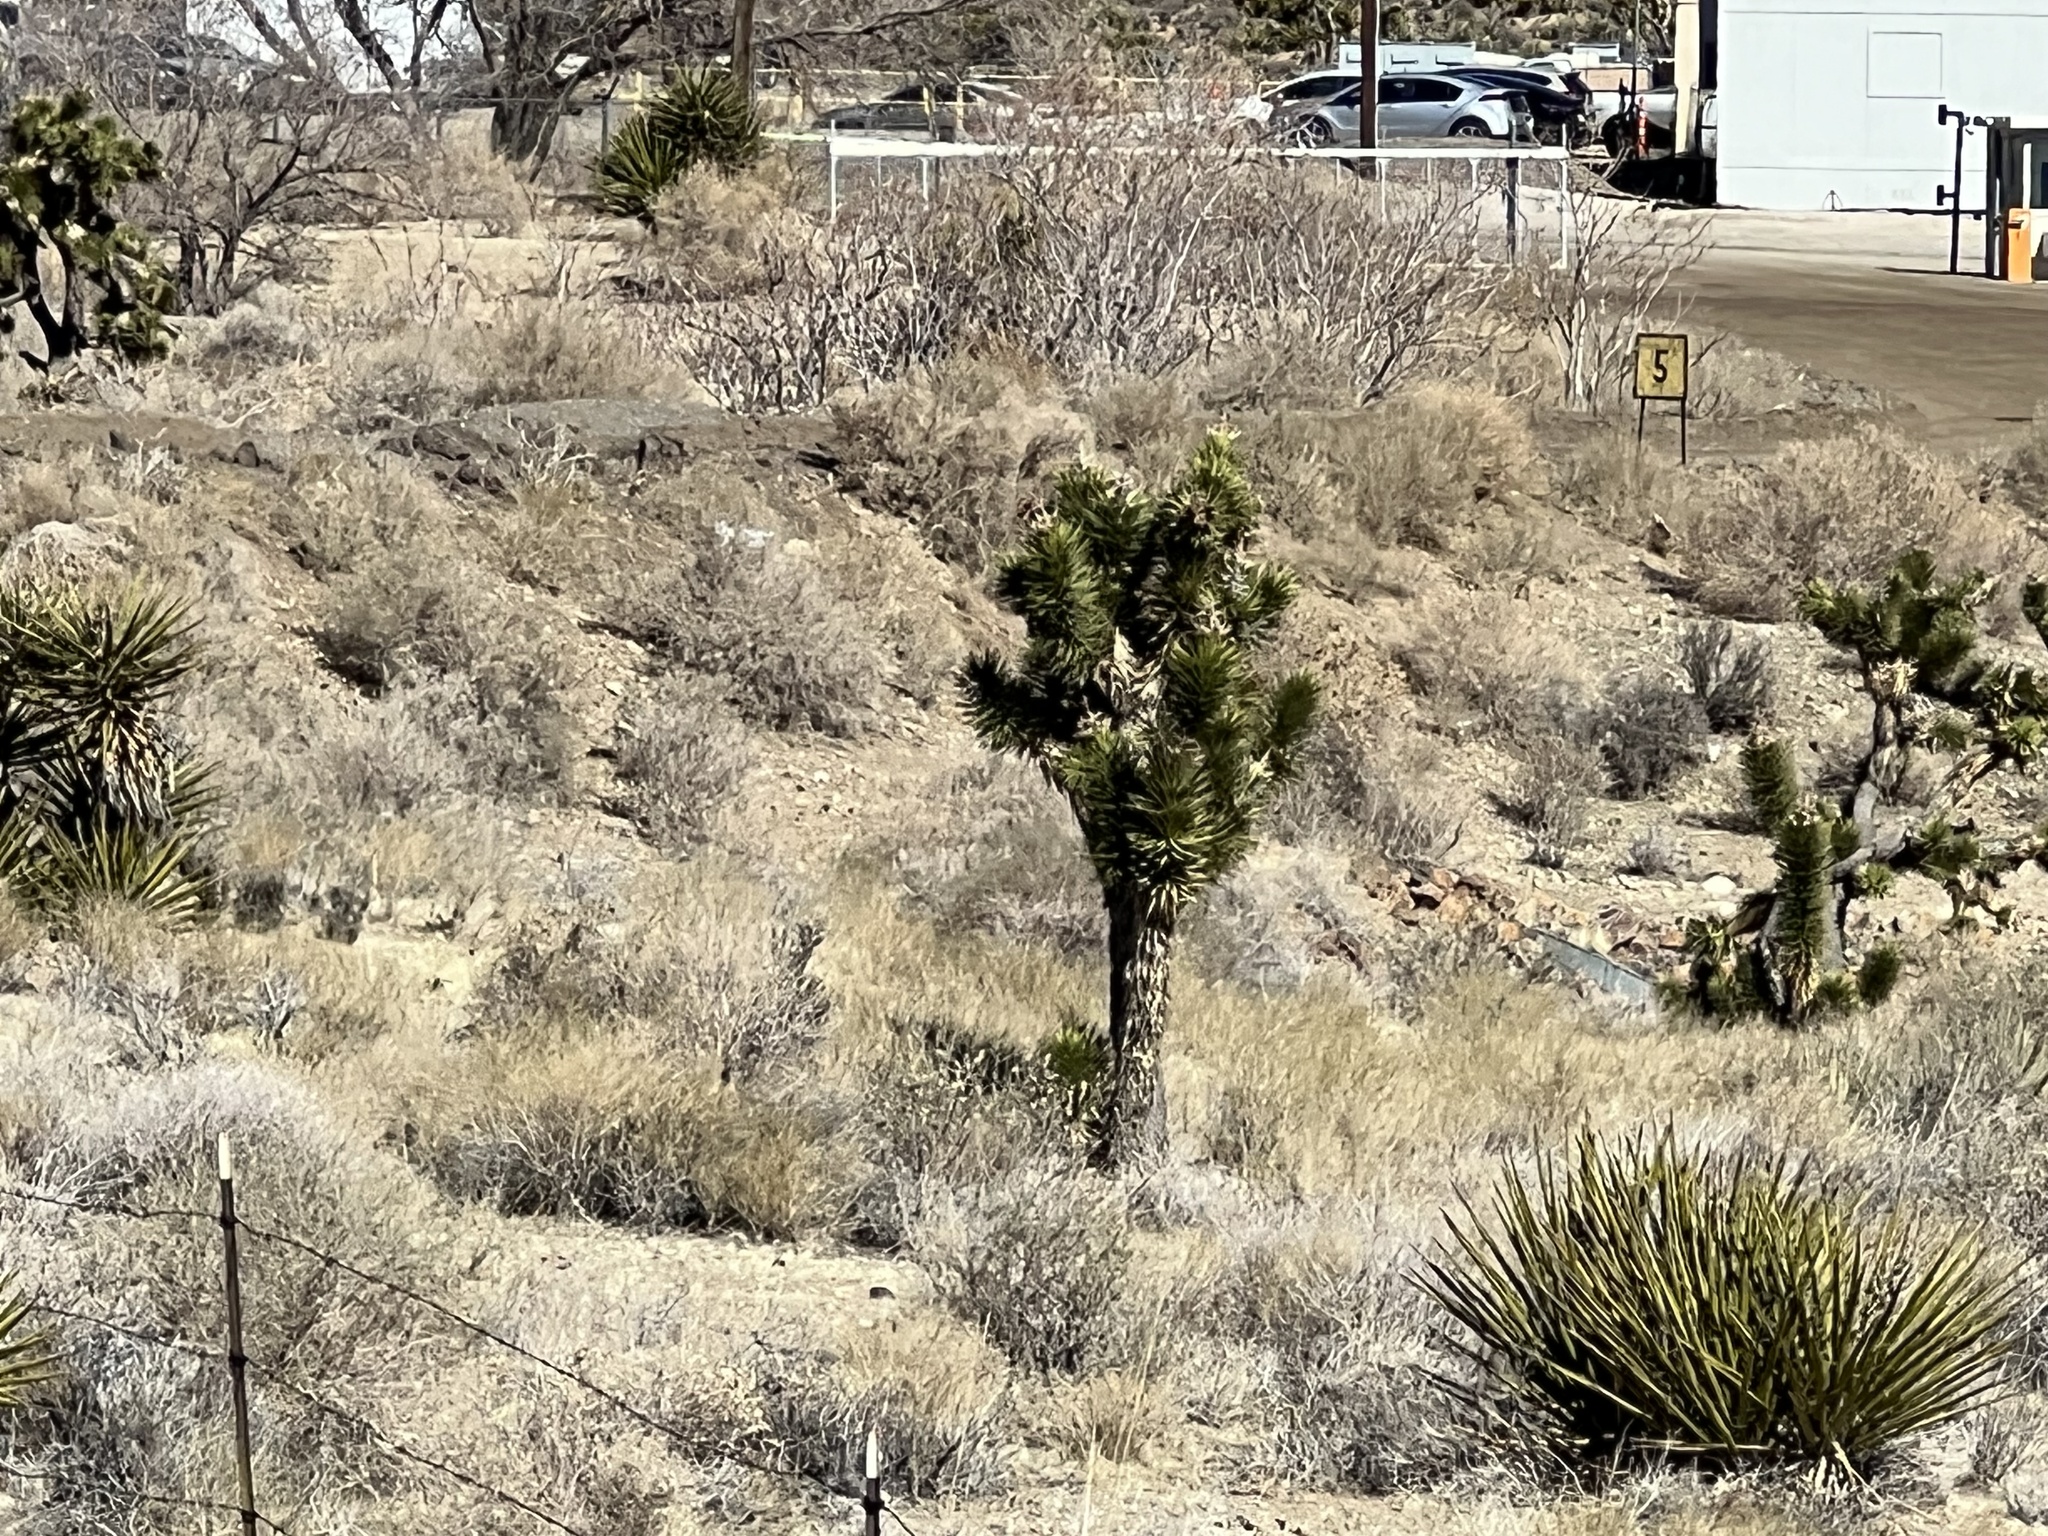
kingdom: Plantae
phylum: Tracheophyta
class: Liliopsida
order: Asparagales
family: Asparagaceae
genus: Yucca
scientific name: Yucca brevifolia
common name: Joshua tree
